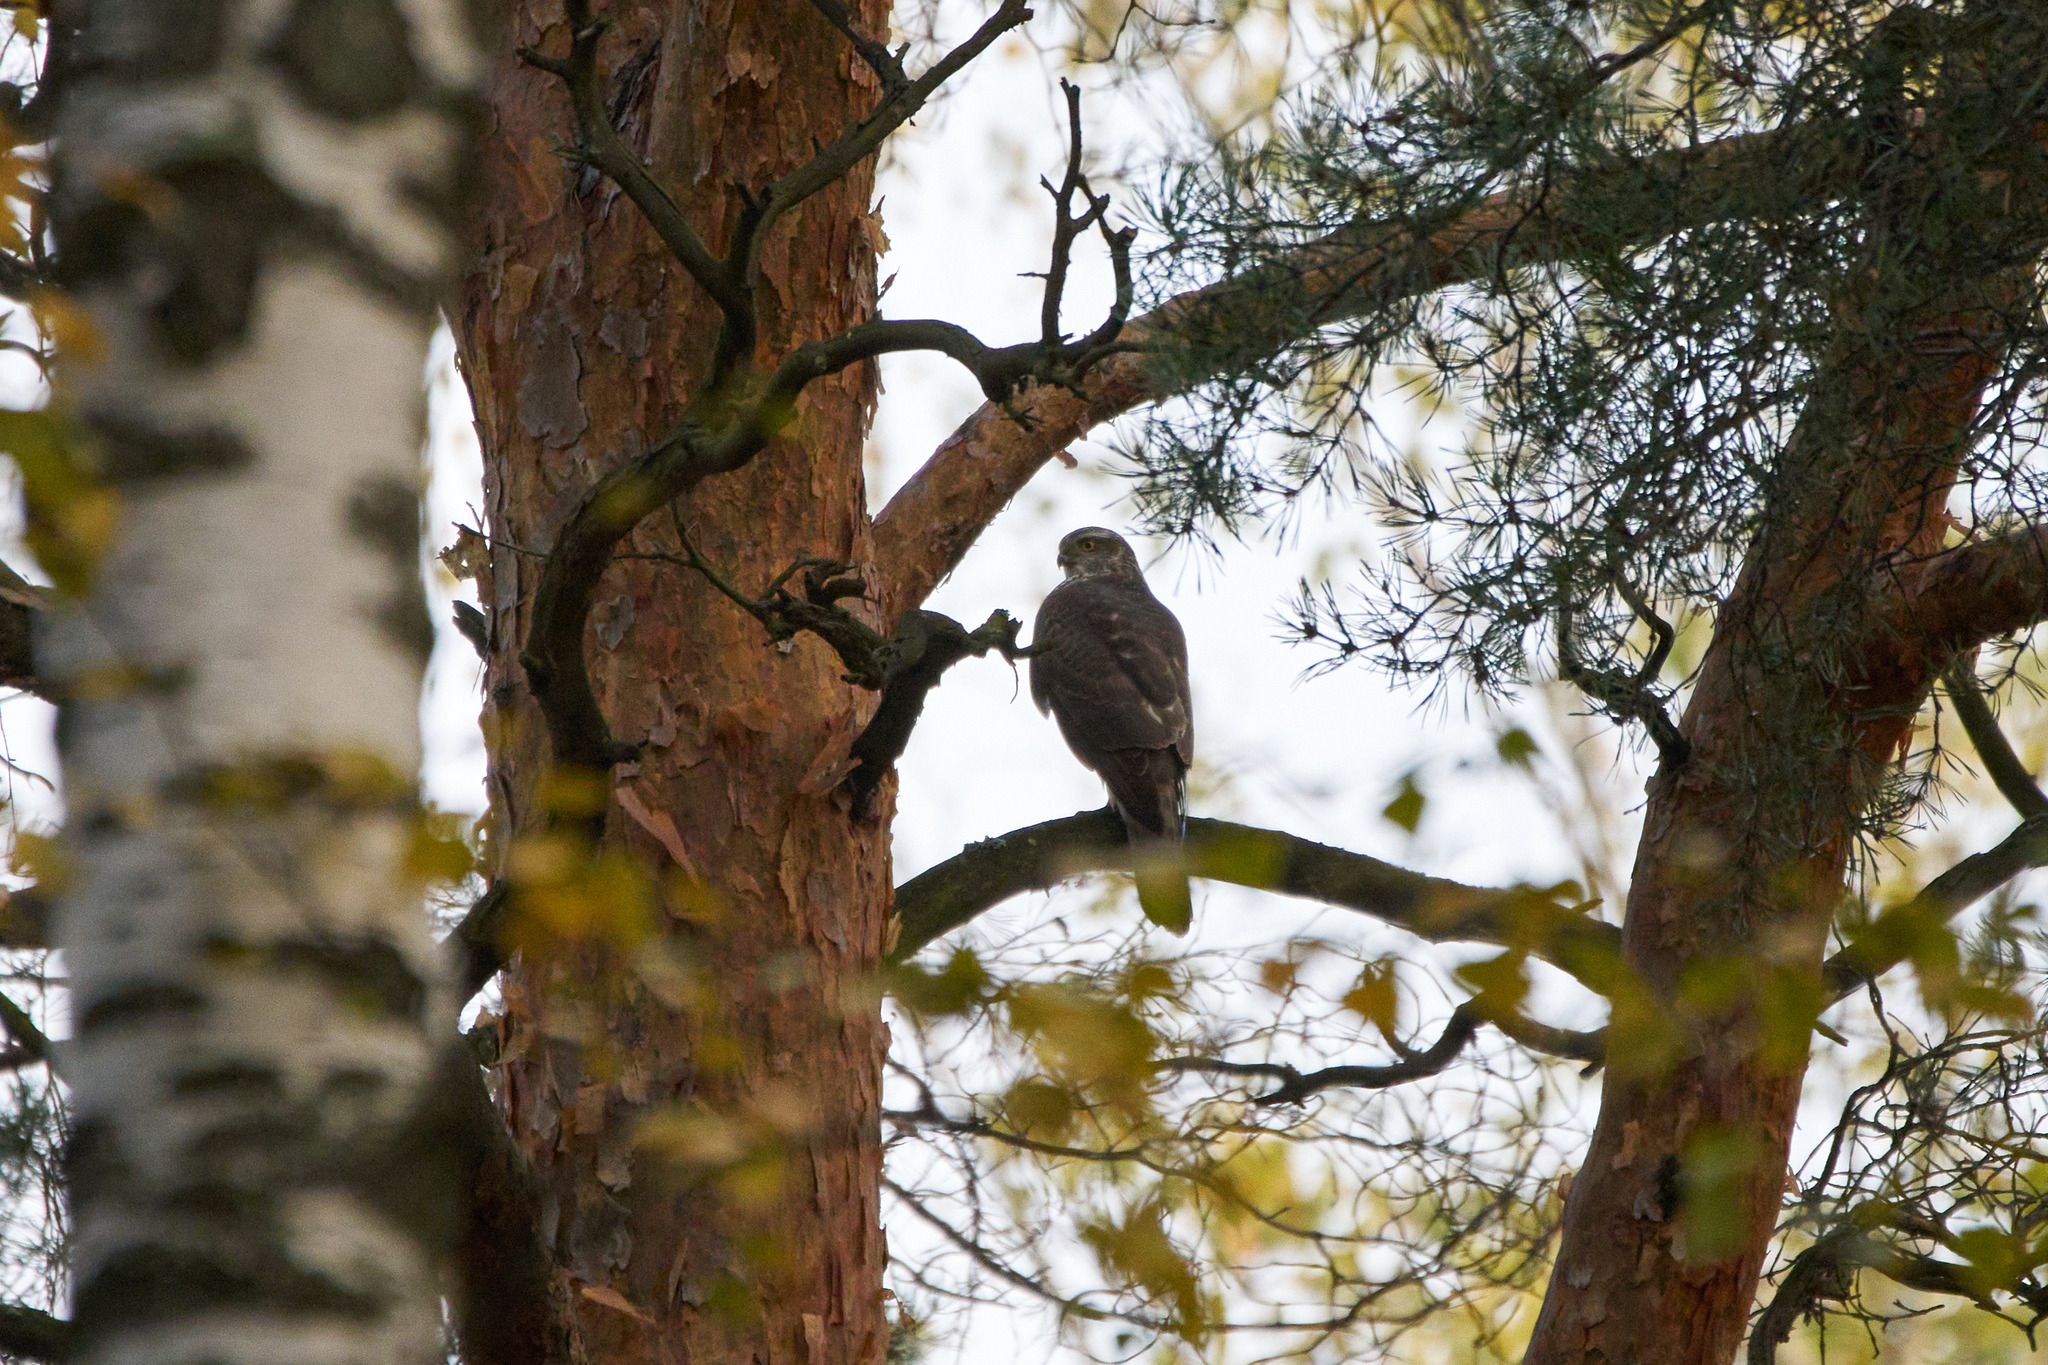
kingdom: Animalia
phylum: Chordata
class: Aves
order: Accipitriformes
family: Accipitridae
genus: Accipiter
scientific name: Accipiter nisus
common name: Eurasian sparrowhawk
